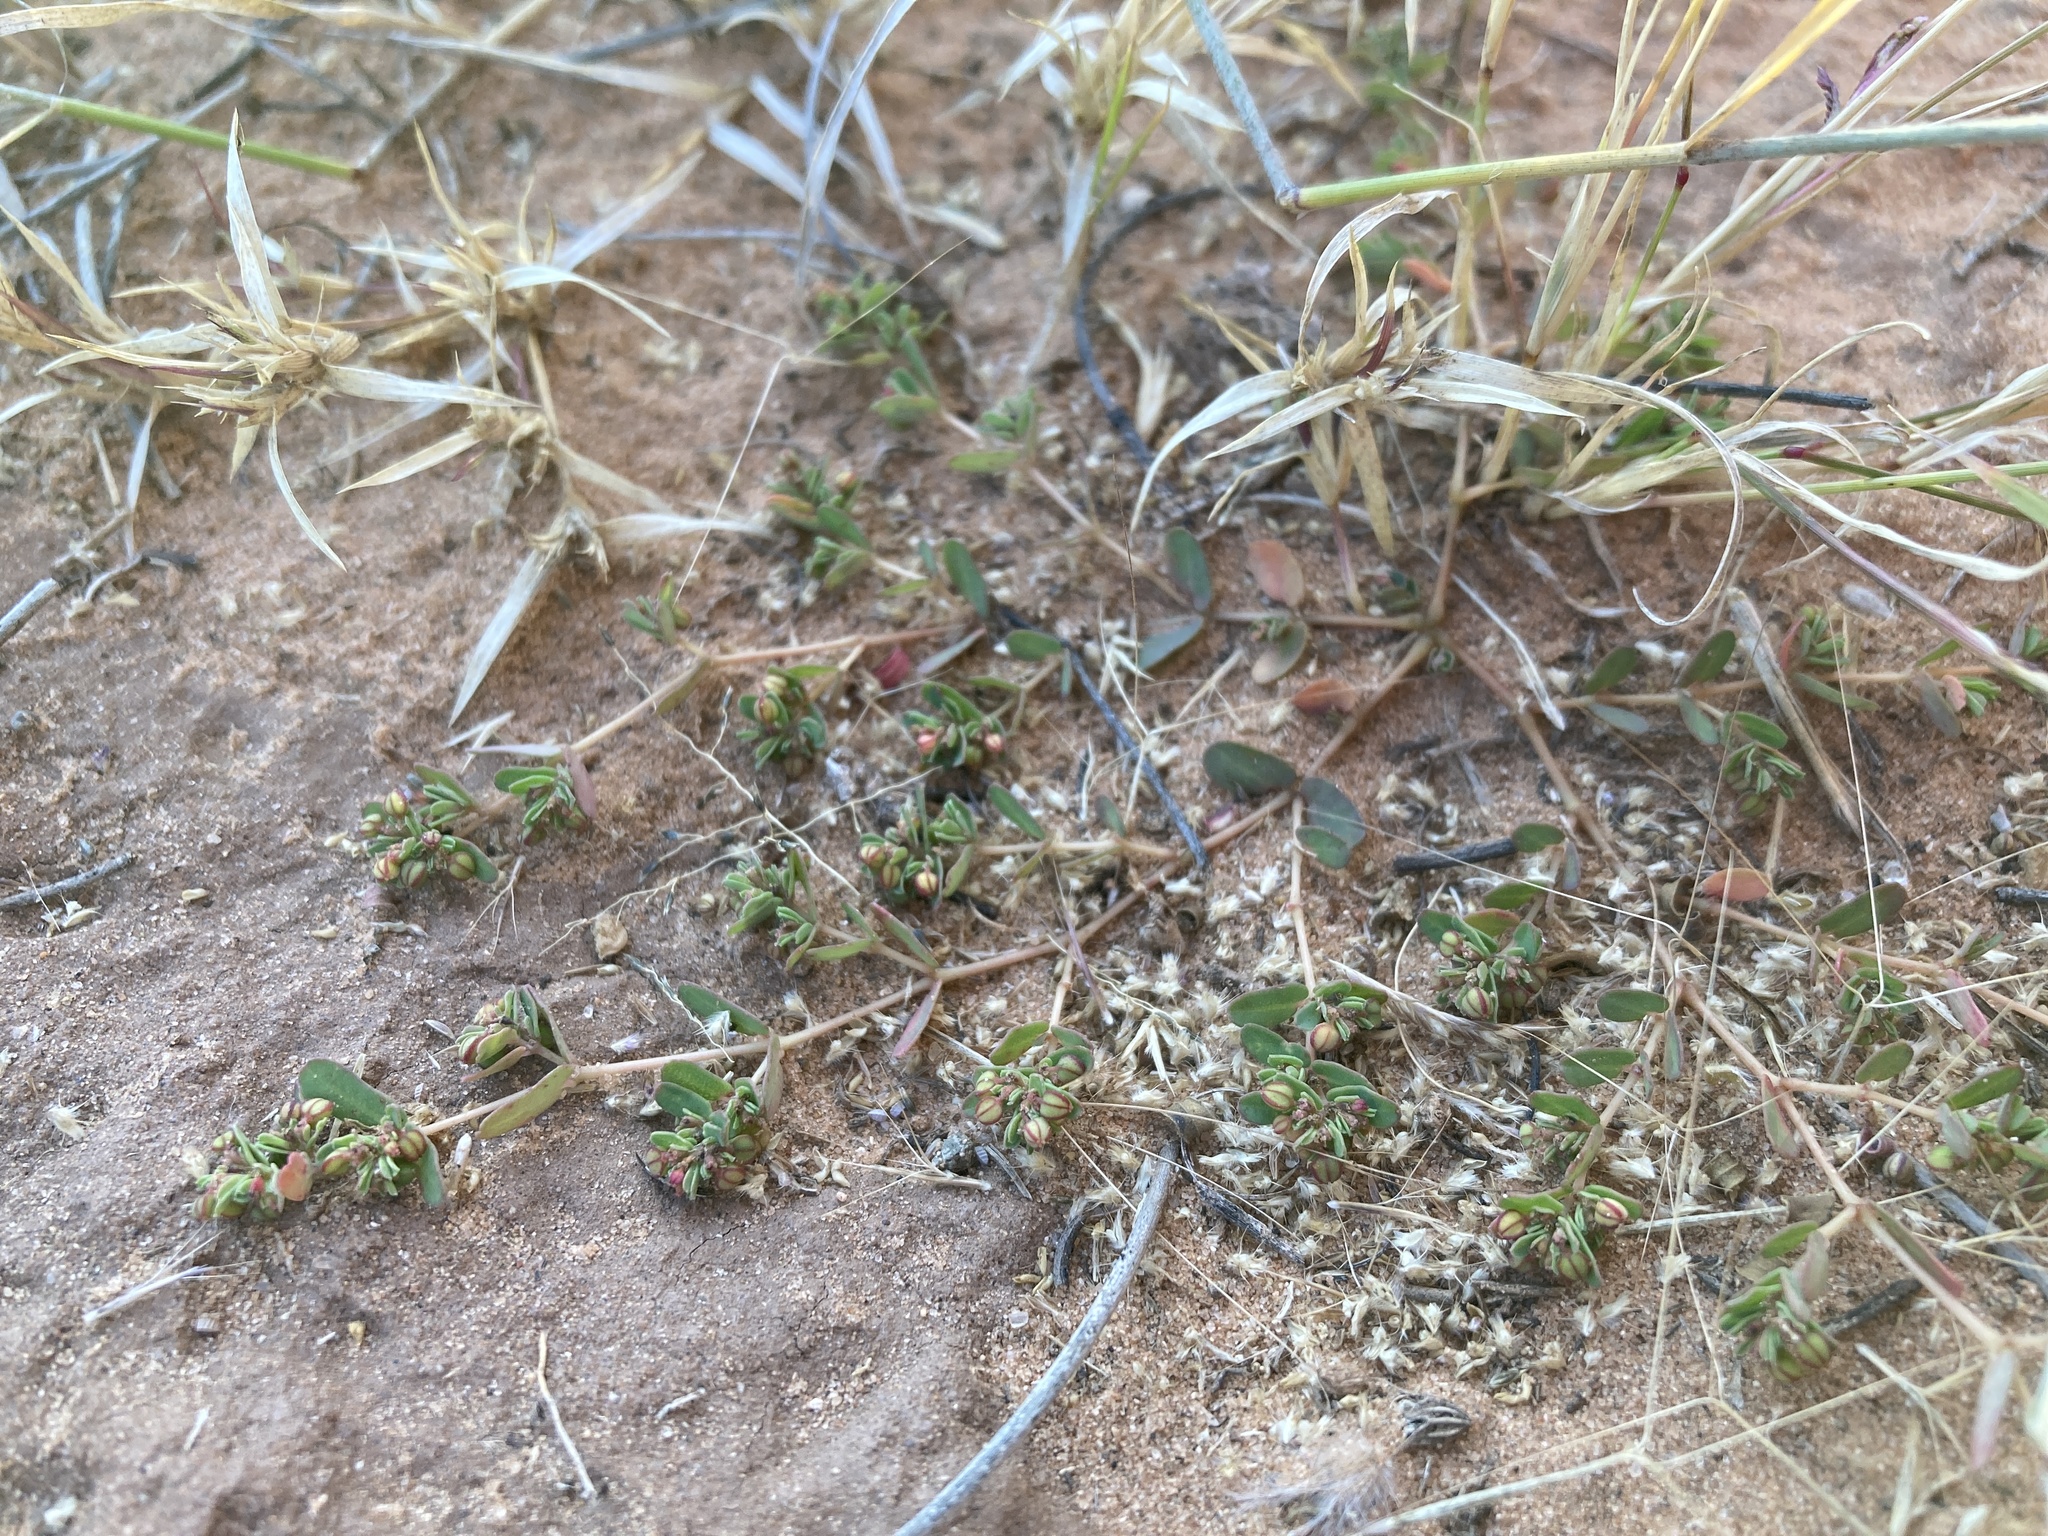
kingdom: Plantae
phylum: Tracheophyta
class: Magnoliopsida
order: Malpighiales
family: Euphorbiaceae
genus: Euphorbia
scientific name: Euphorbia glyptosperma
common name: Corrugate-seeded spurge
